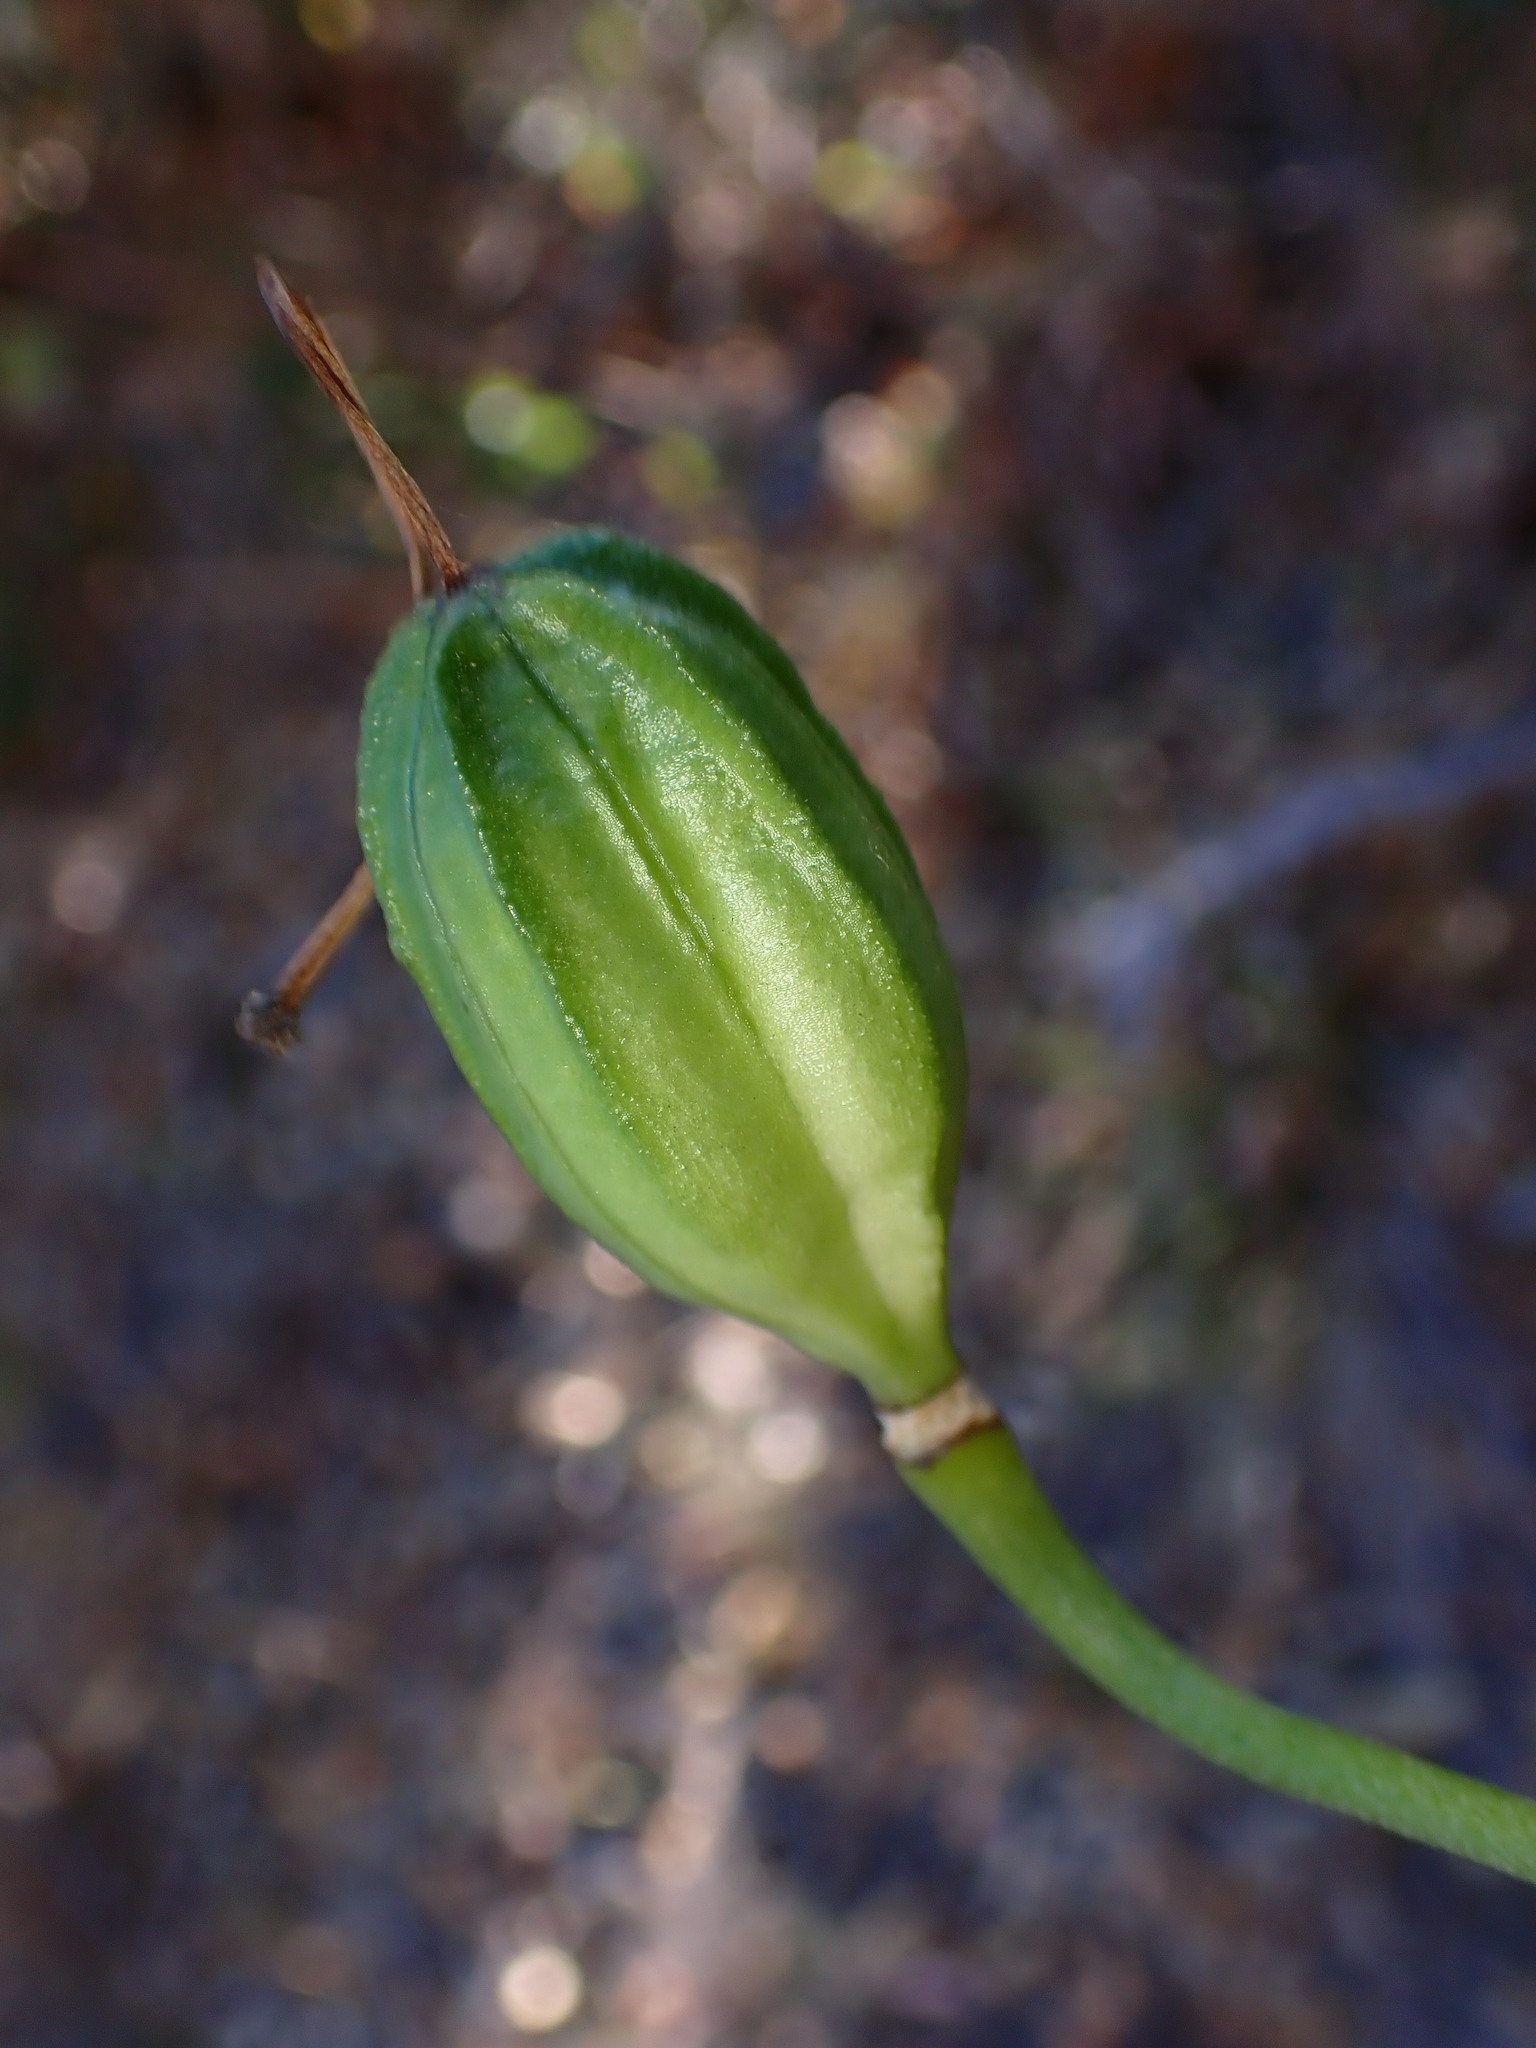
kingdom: Plantae
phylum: Tracheophyta
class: Liliopsida
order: Liliales
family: Liliaceae
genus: Lilium
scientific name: Lilium humboldtii
